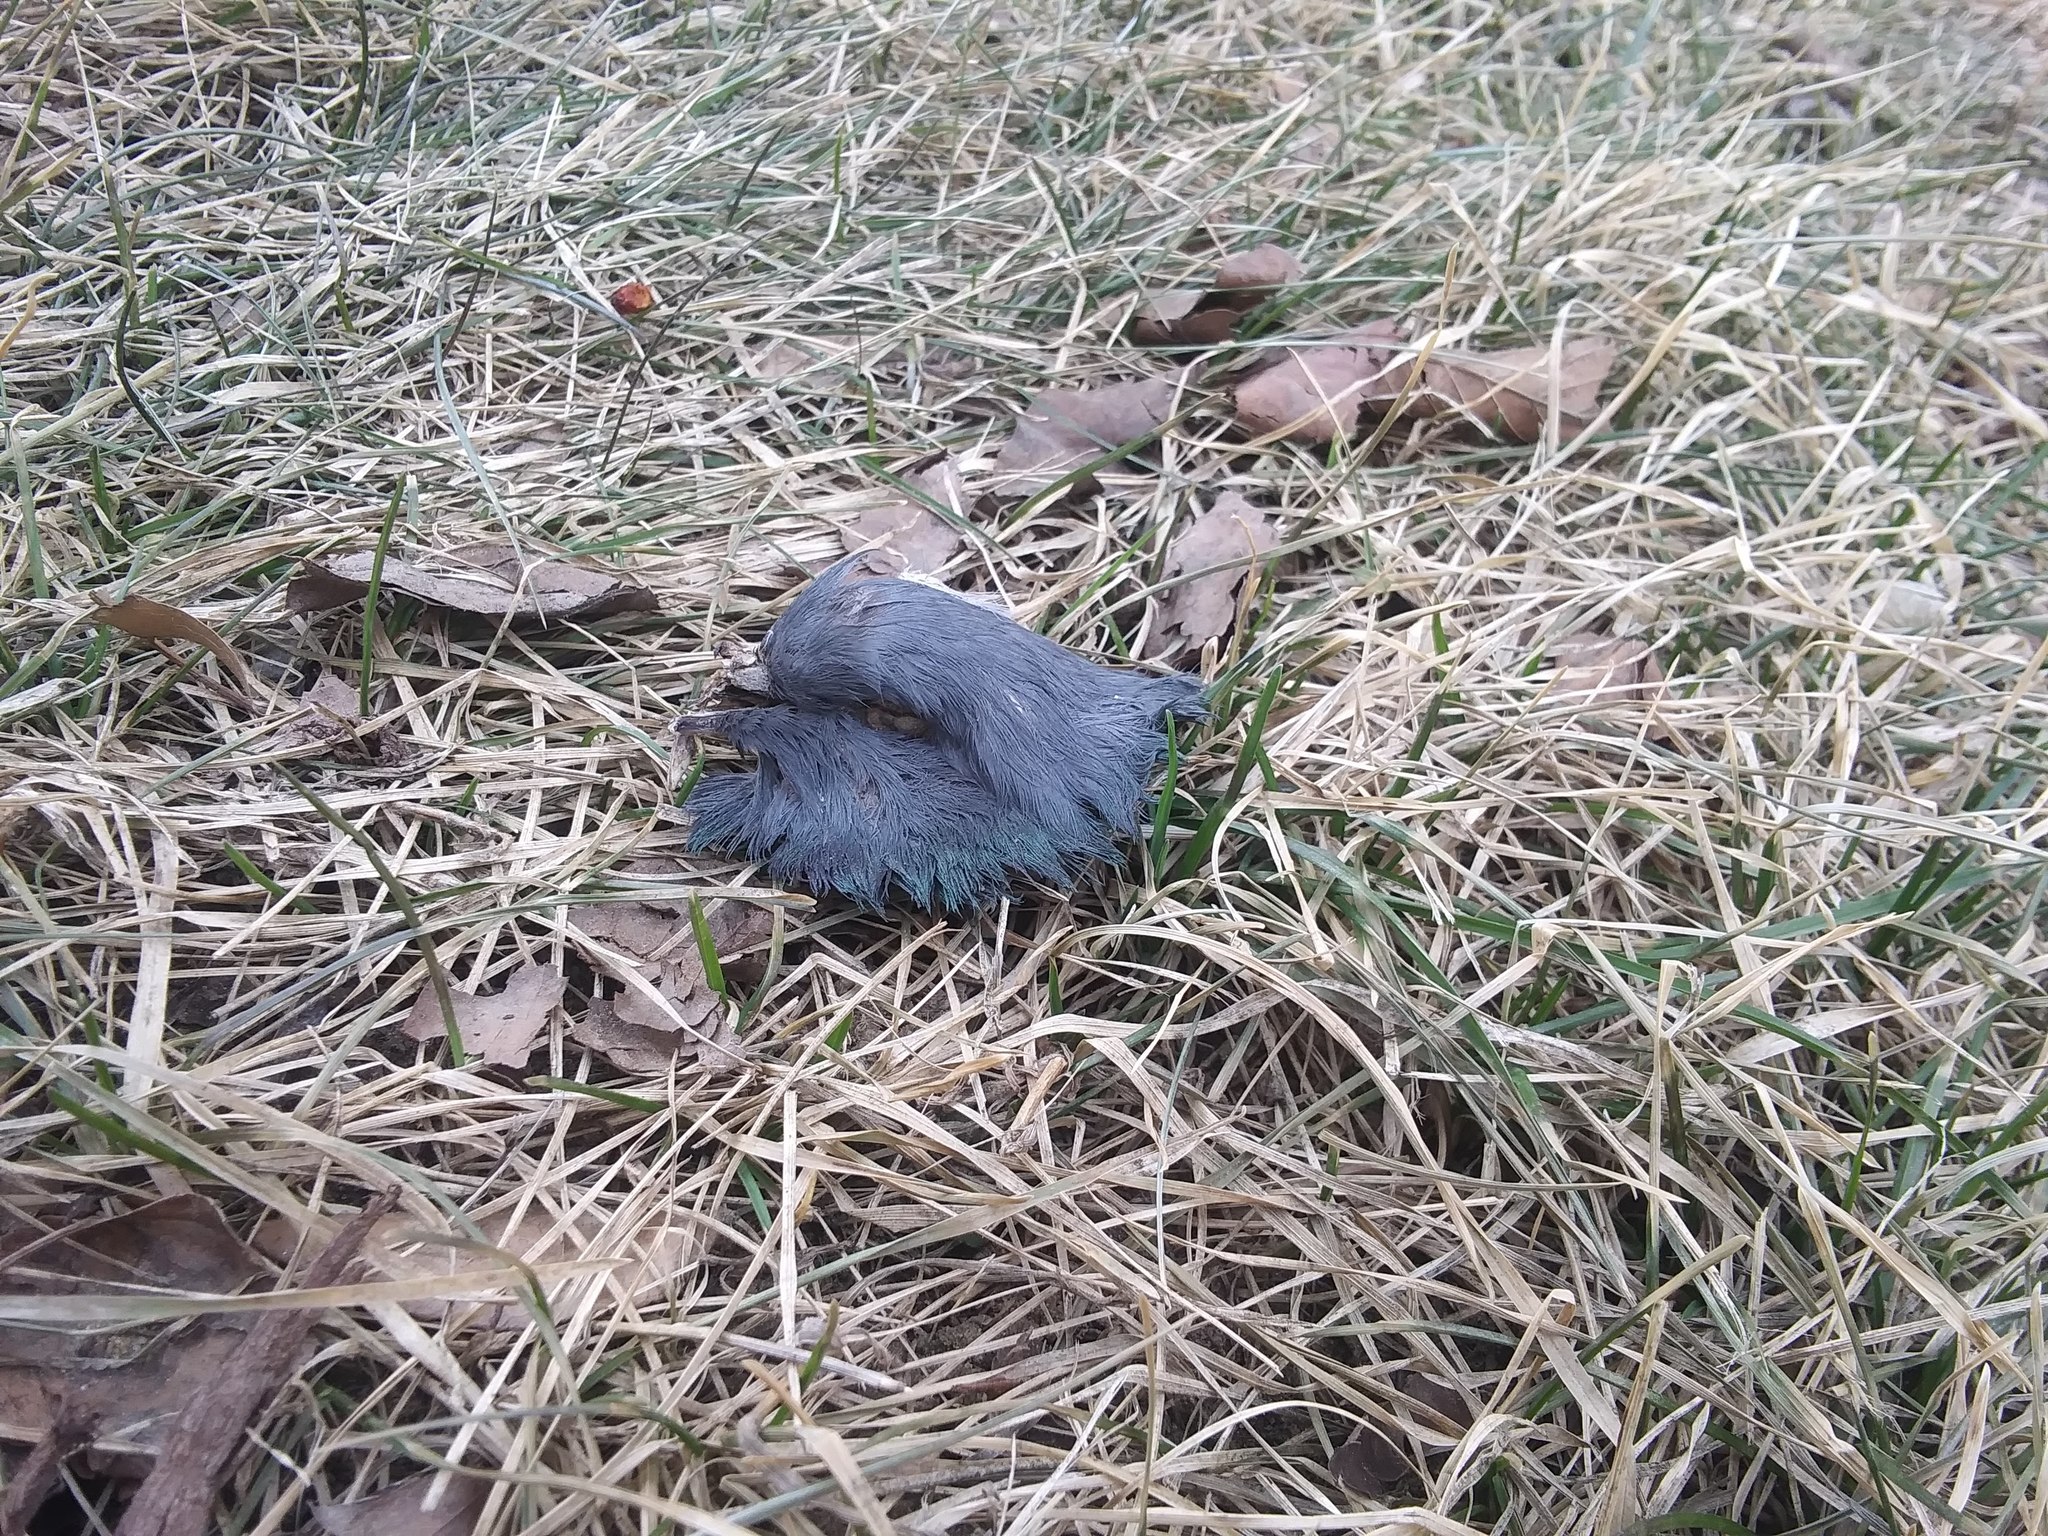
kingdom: Animalia
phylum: Chordata
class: Aves
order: Columbiformes
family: Columbidae
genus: Columba
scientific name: Columba livia
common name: Rock pigeon
